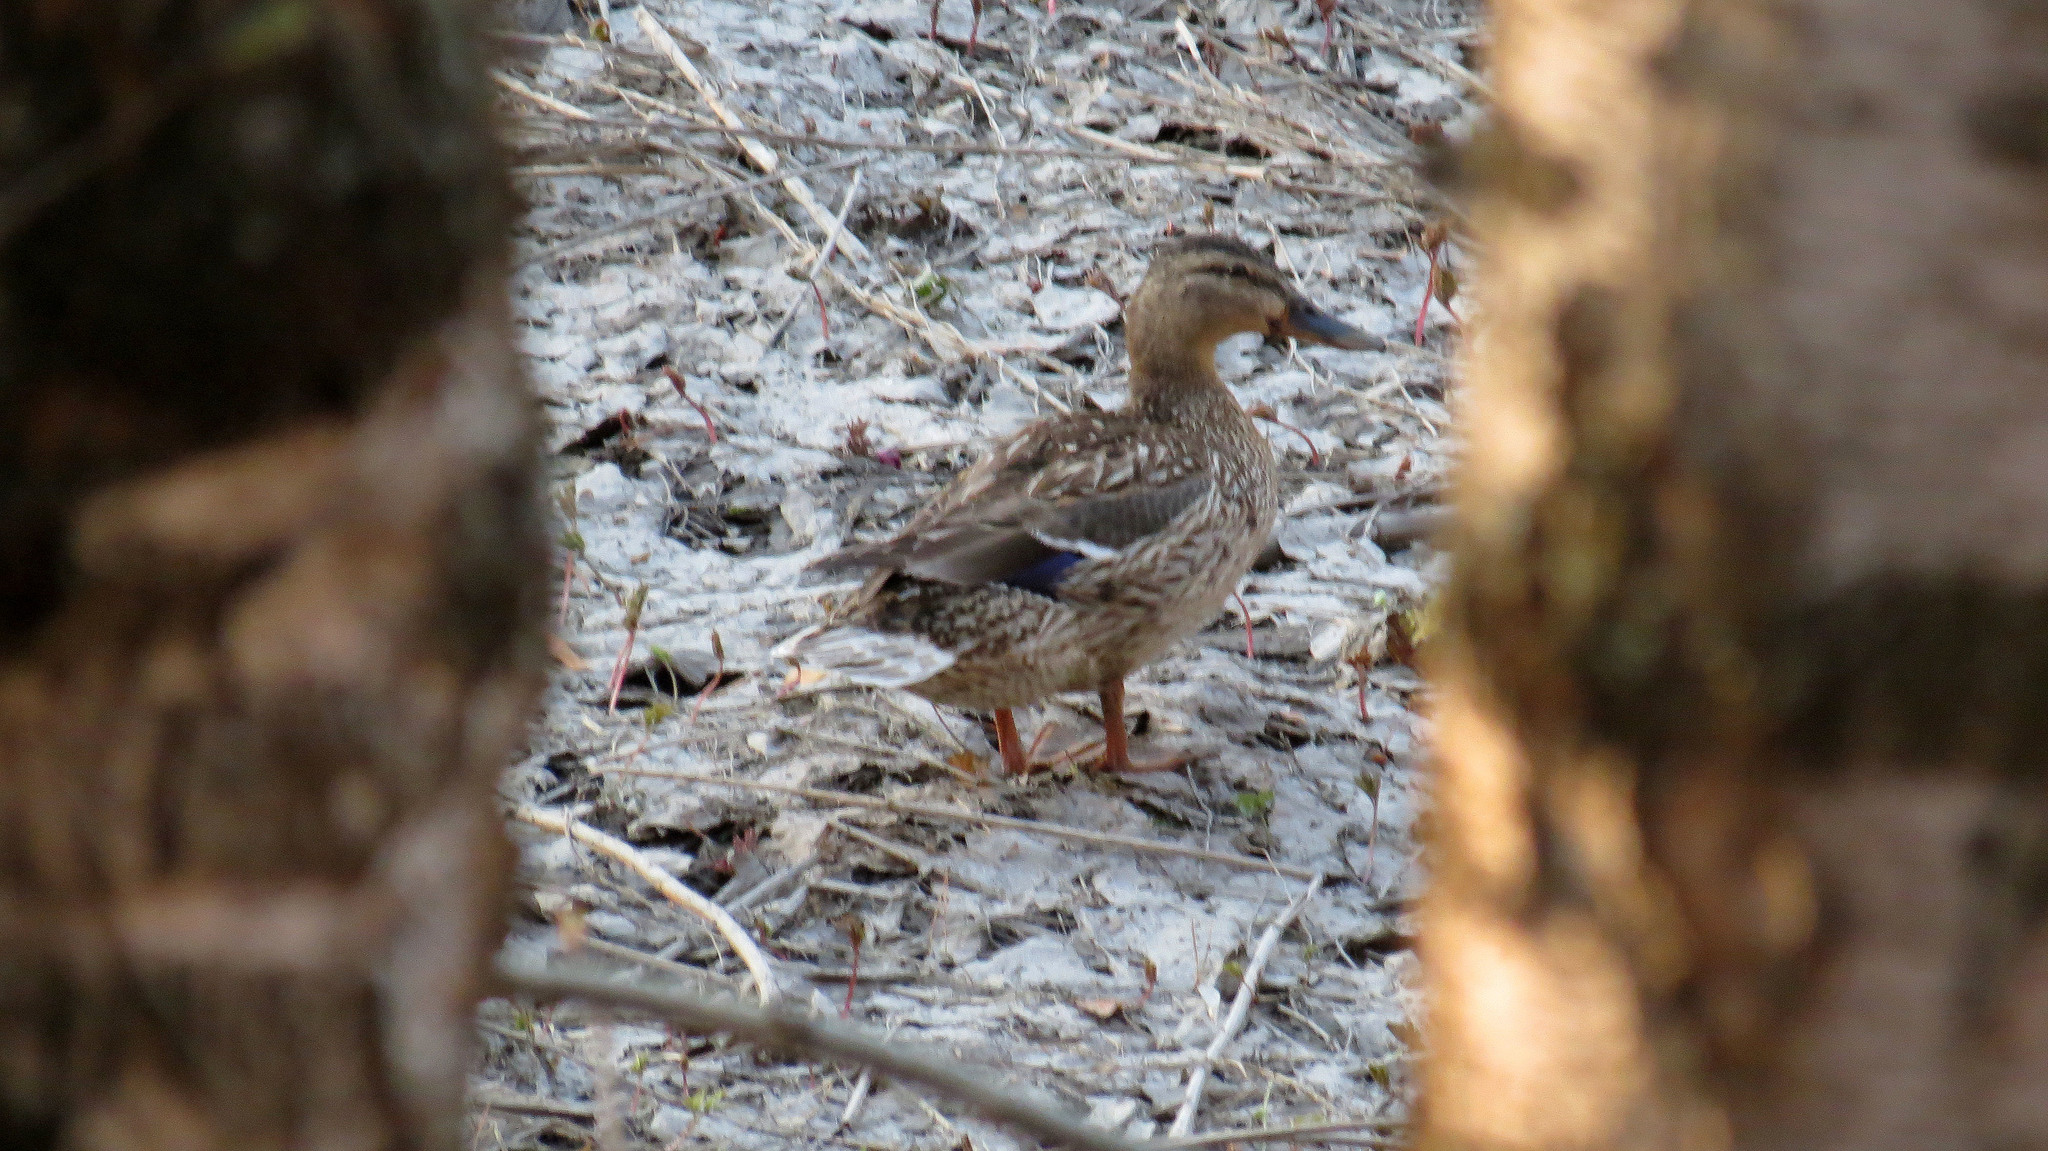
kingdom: Animalia
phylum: Chordata
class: Aves
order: Anseriformes
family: Anatidae
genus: Anas
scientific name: Anas platyrhynchos
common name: Mallard
